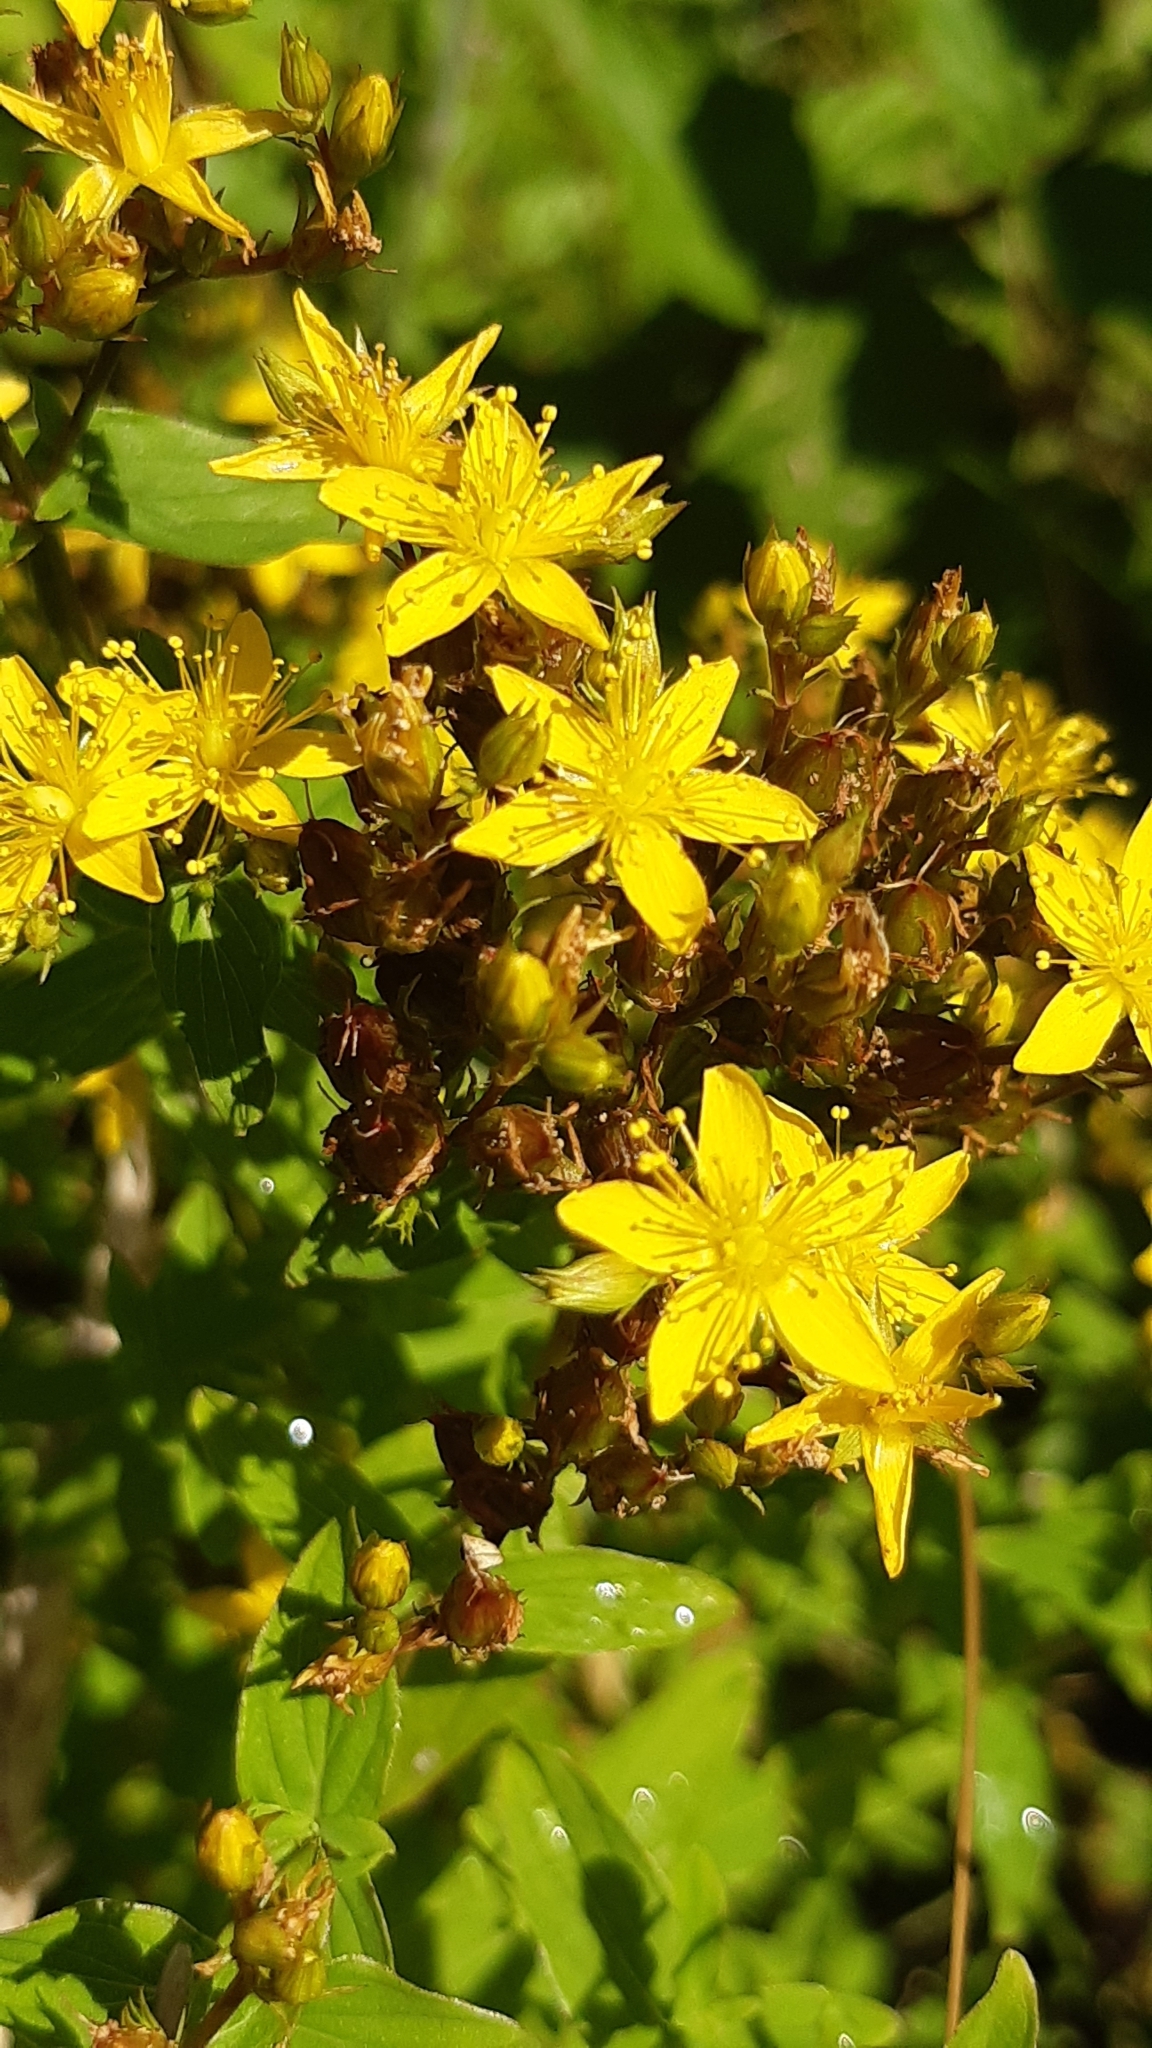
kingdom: Plantae
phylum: Tracheophyta
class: Magnoliopsida
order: Malpighiales
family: Hypericaceae
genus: Hypericum
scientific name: Hypericum tetrapterum
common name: Square-stalked st. john's-wort
